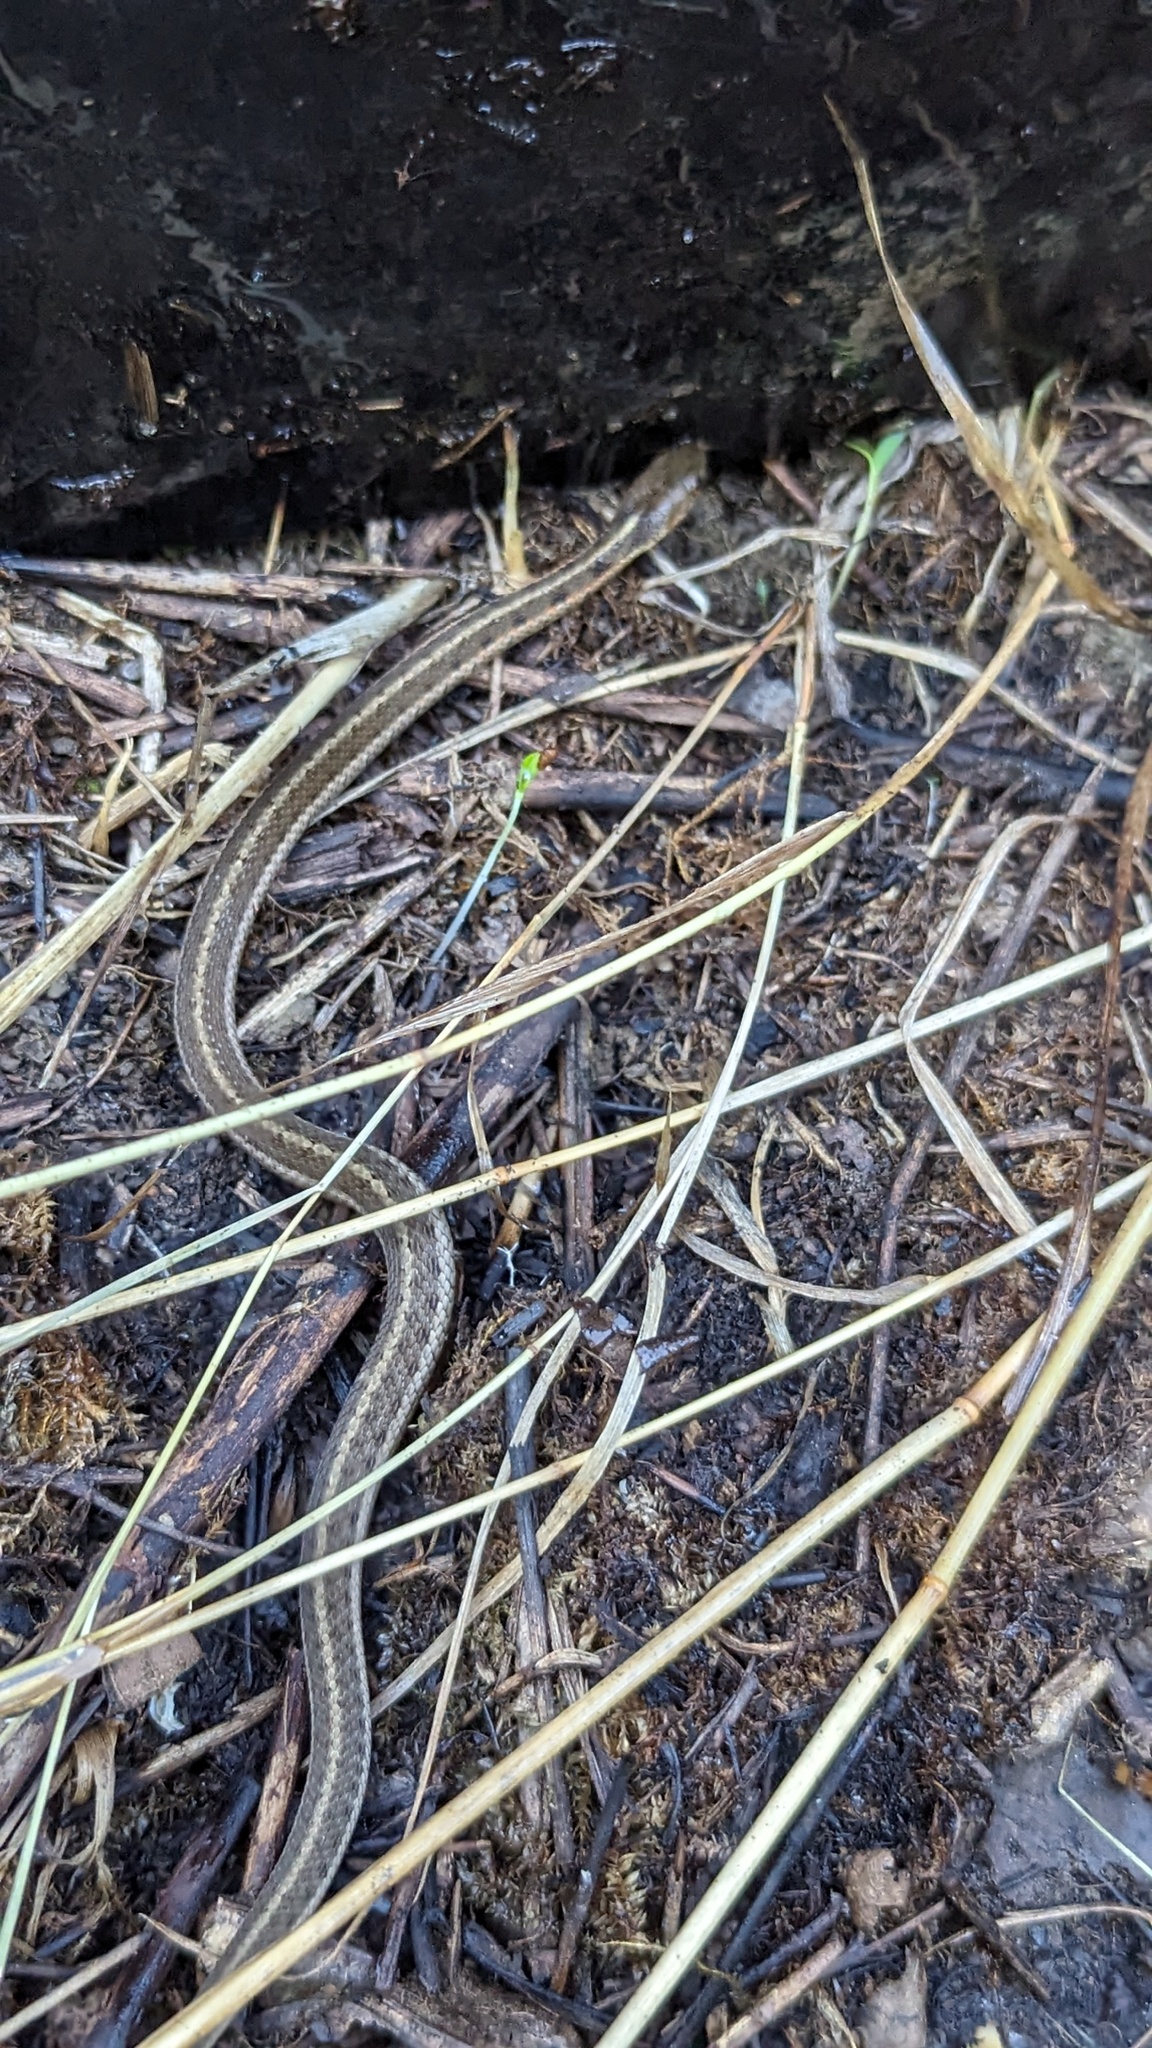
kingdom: Animalia
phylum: Chordata
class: Squamata
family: Colubridae
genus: Thamnophis
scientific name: Thamnophis sirtalis
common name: Common garter snake
